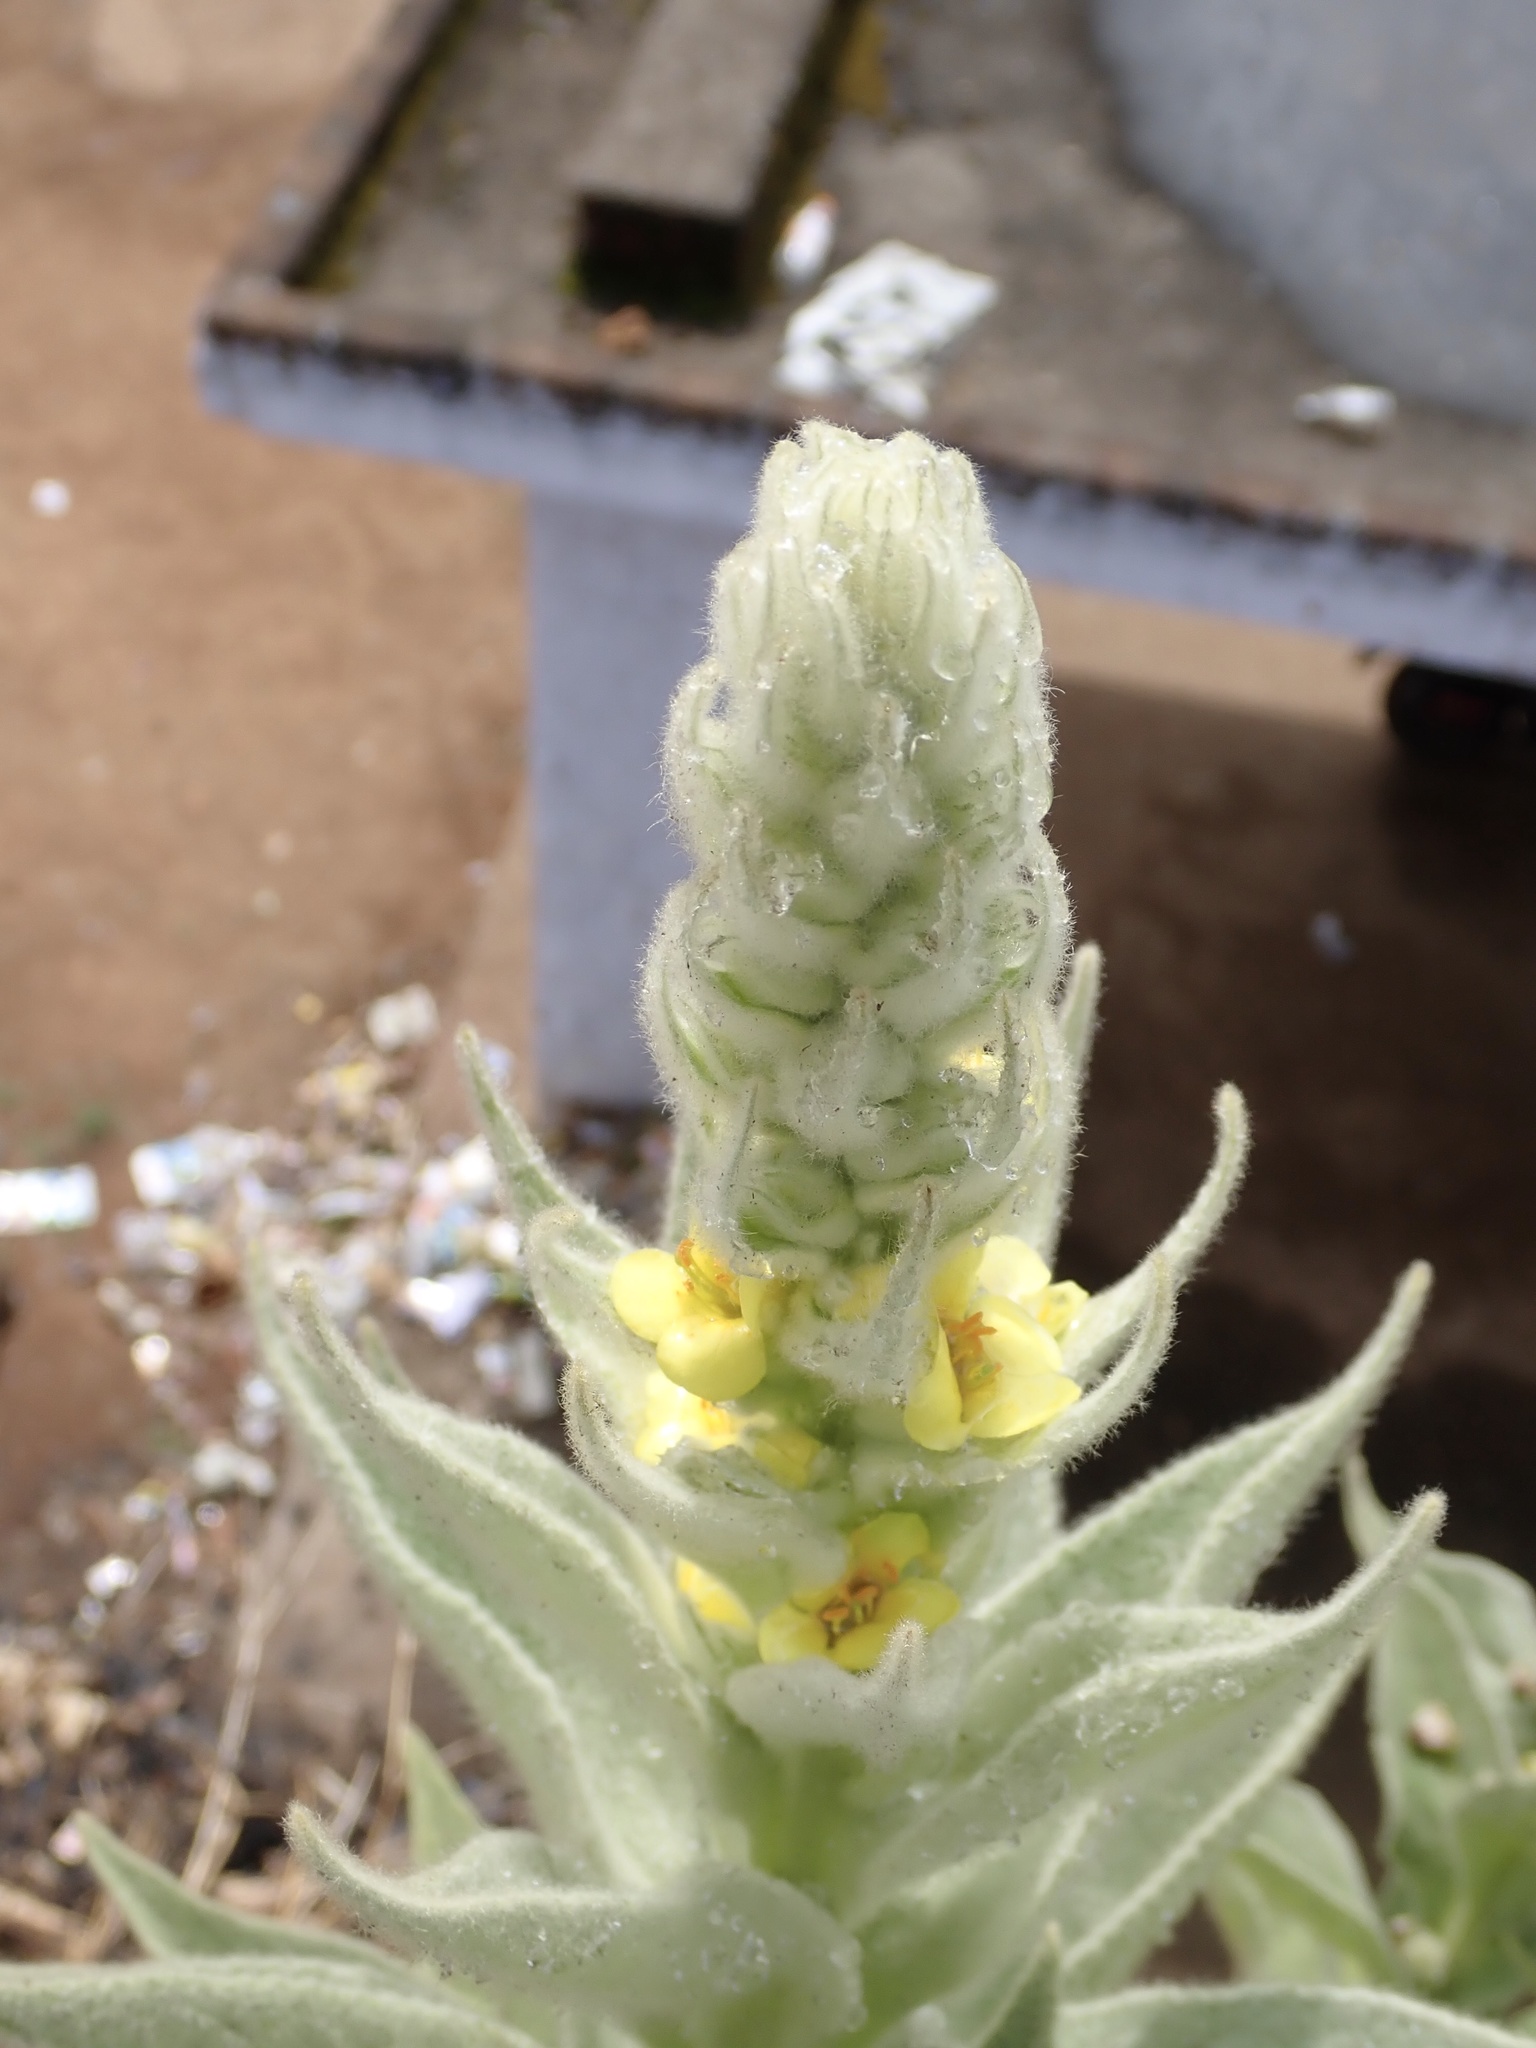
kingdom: Plantae
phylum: Tracheophyta
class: Magnoliopsida
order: Lamiales
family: Scrophulariaceae
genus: Verbascum
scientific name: Verbascum thapsus
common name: Common mullein
